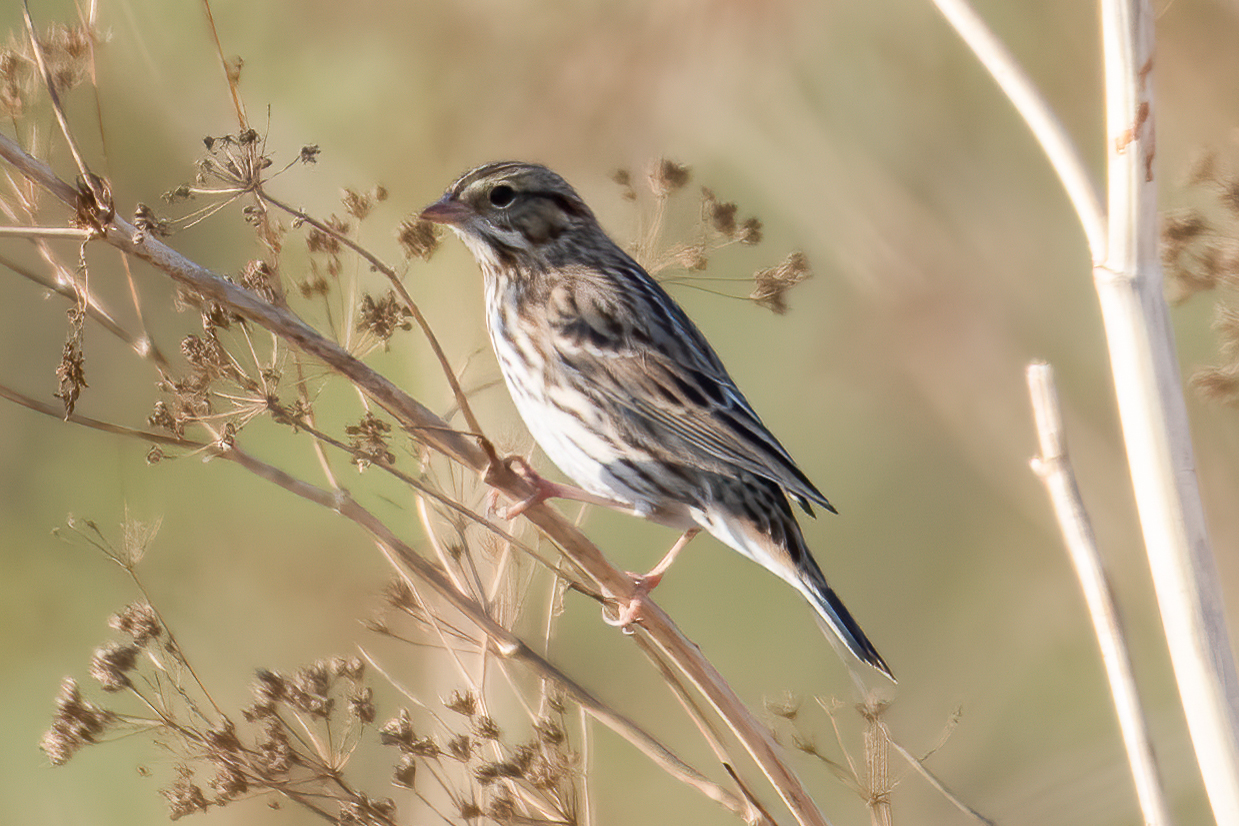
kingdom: Animalia
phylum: Chordata
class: Aves
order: Passeriformes
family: Passerellidae
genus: Passerculus
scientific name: Passerculus sandwichensis
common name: Savannah sparrow
